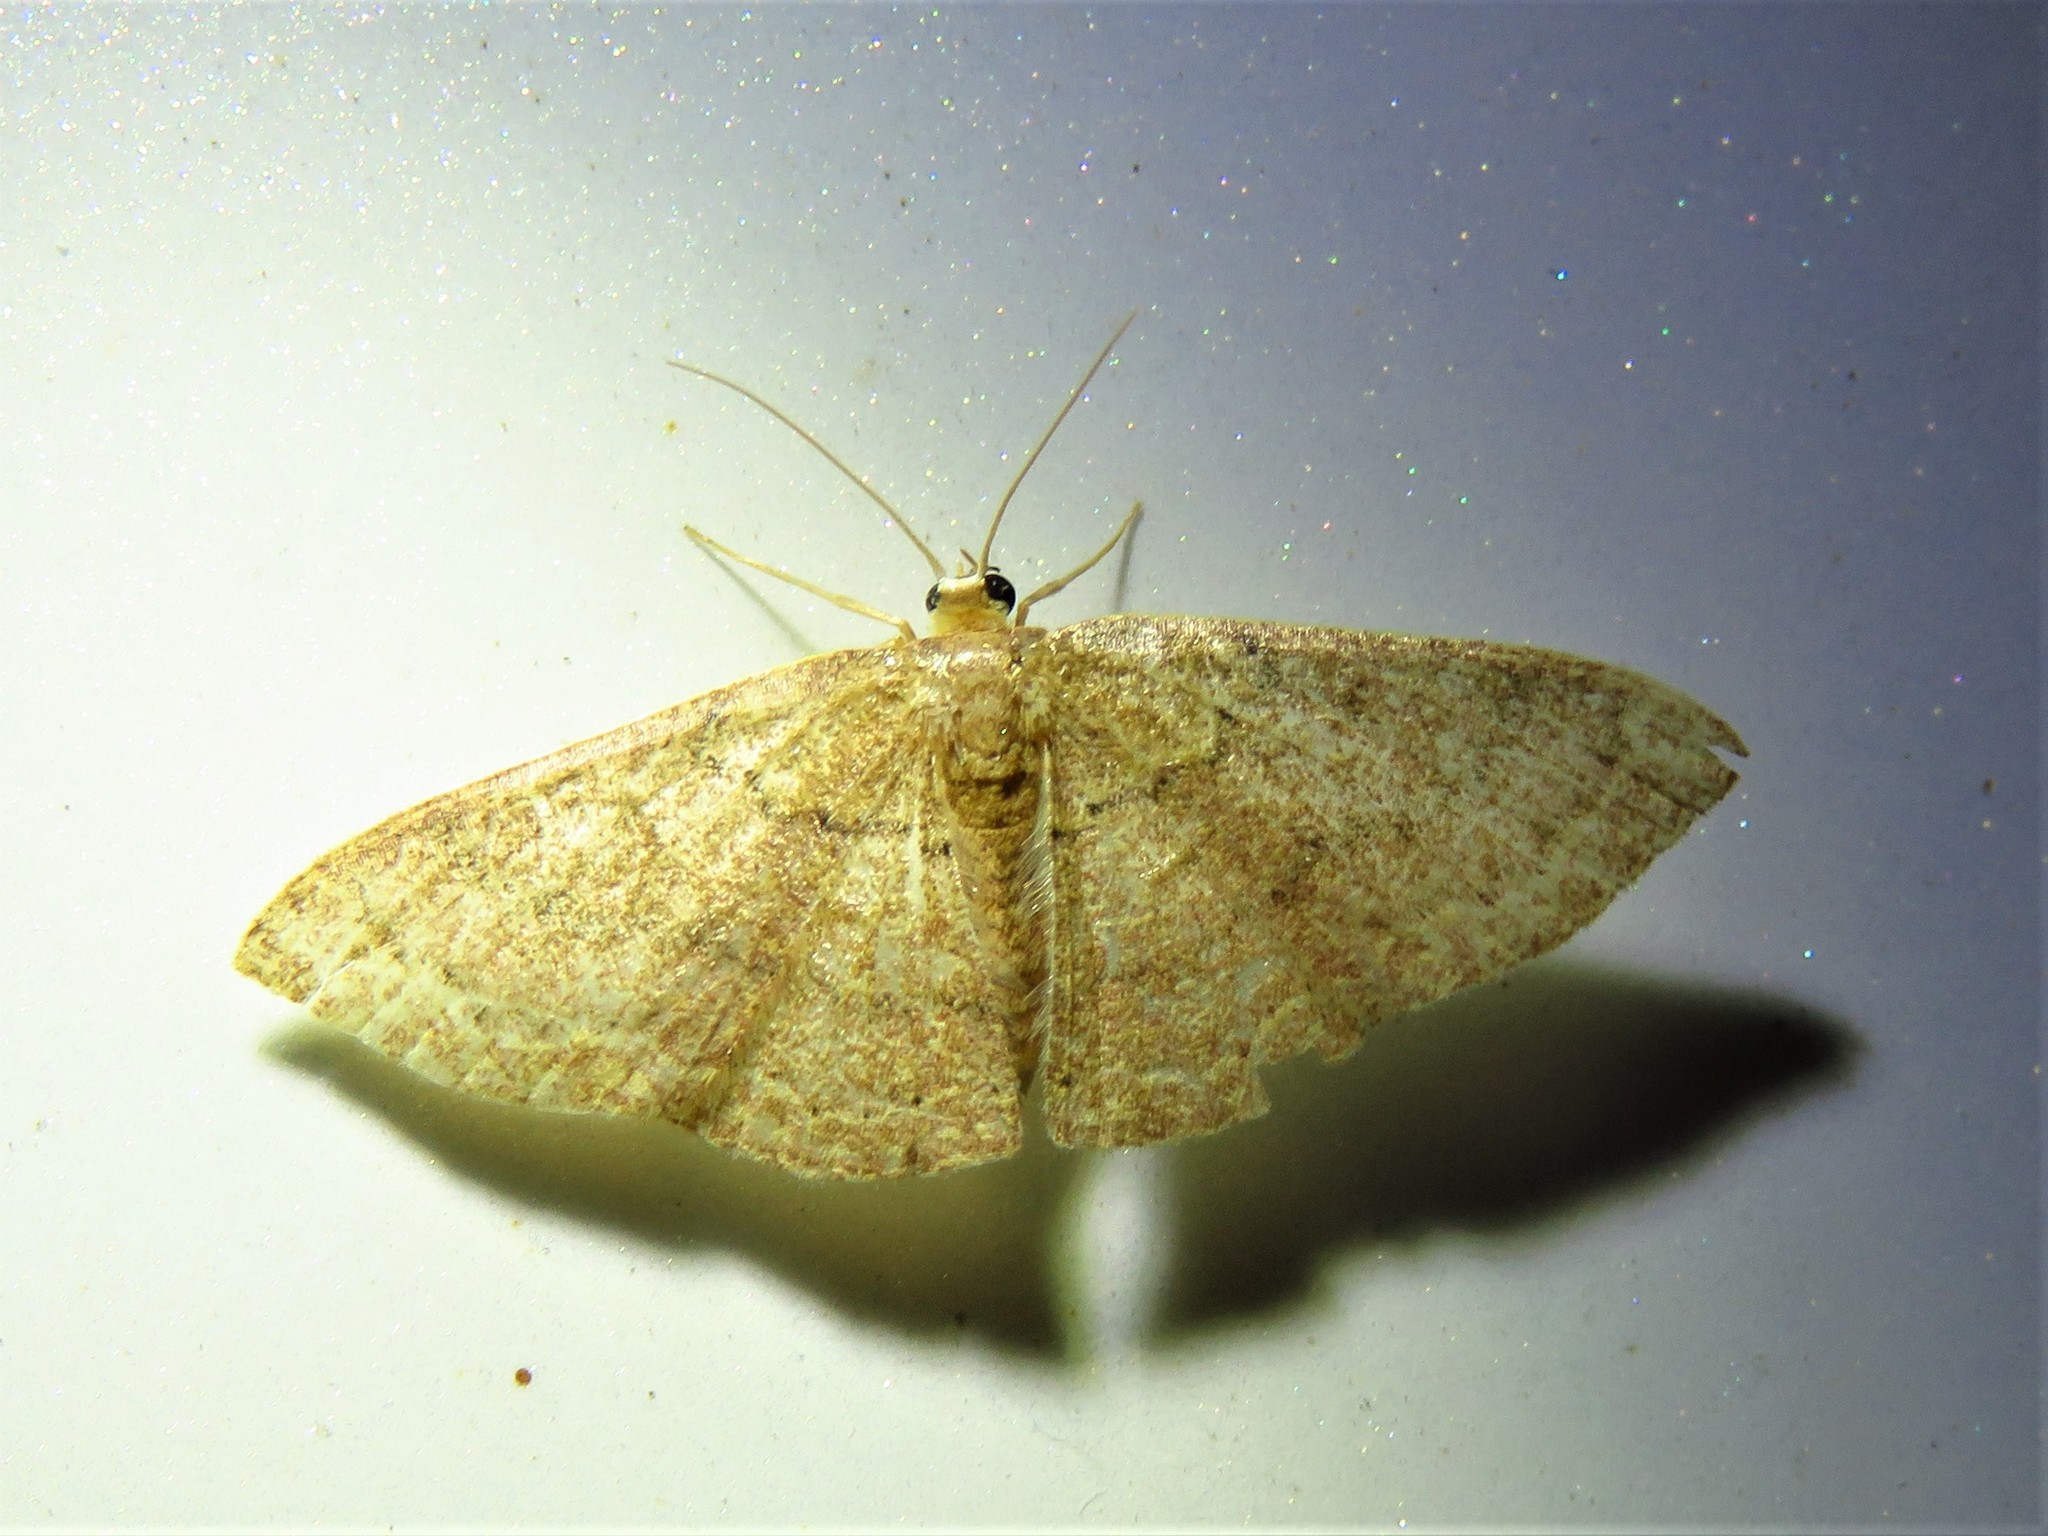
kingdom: Animalia
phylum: Arthropoda
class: Insecta
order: Lepidoptera
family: Geometridae
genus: Pleuroprucha
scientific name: Pleuroprucha insulsaria
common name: Common tan wave
